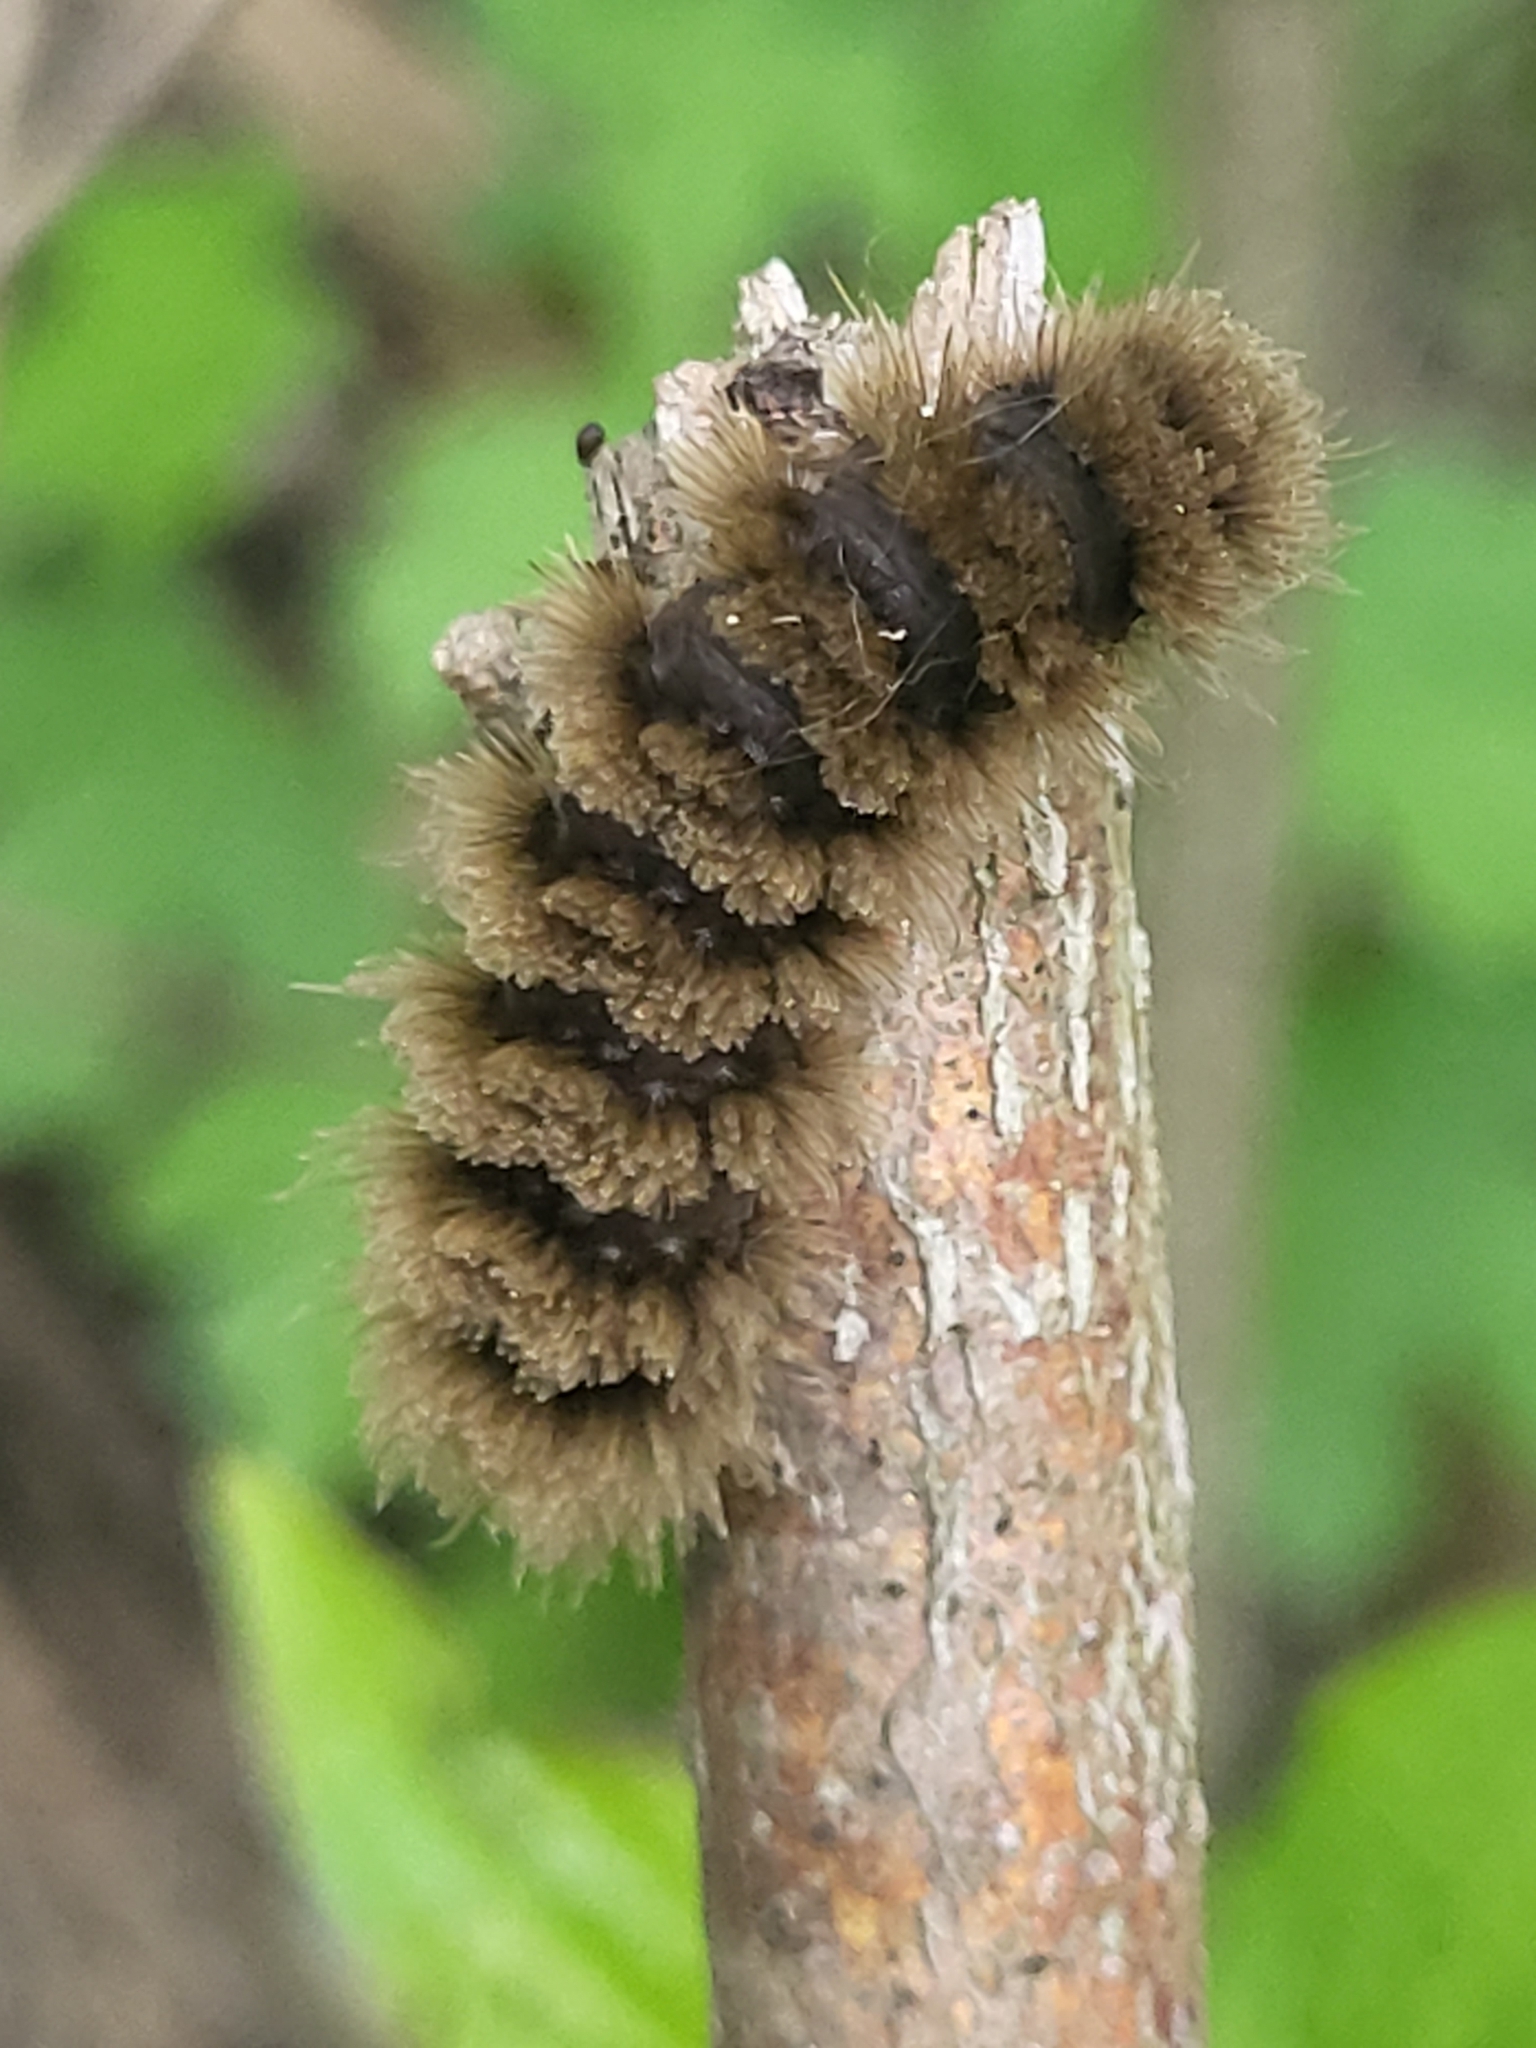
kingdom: Animalia
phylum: Arthropoda
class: Insecta
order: Lepidoptera
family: Erebidae
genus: Amata
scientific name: Amata phegea
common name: Nine-spotted
